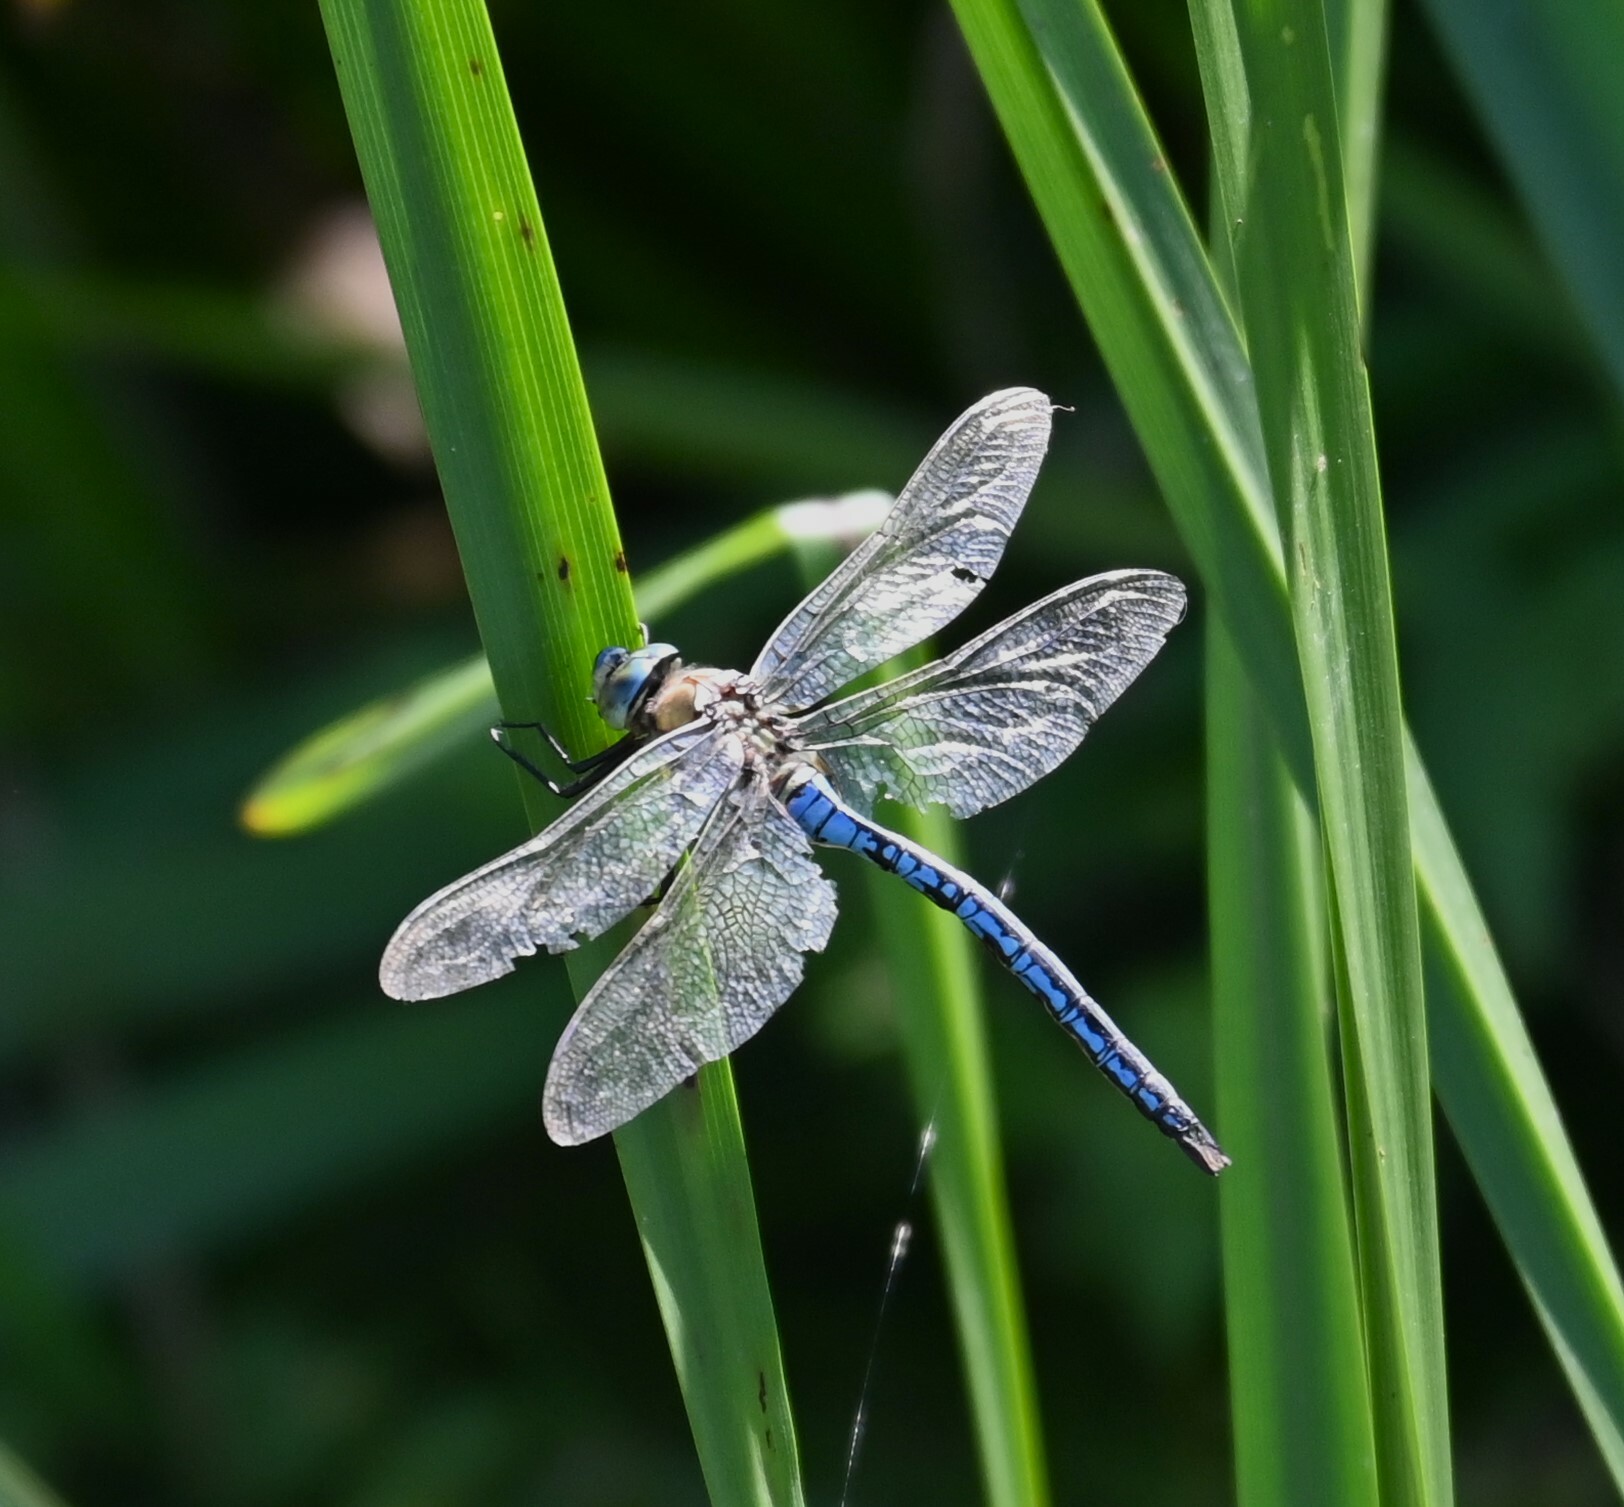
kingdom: Animalia
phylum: Arthropoda
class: Insecta
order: Odonata
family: Aeshnidae
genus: Anax
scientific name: Anax imperator
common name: Emperor dragonfly
